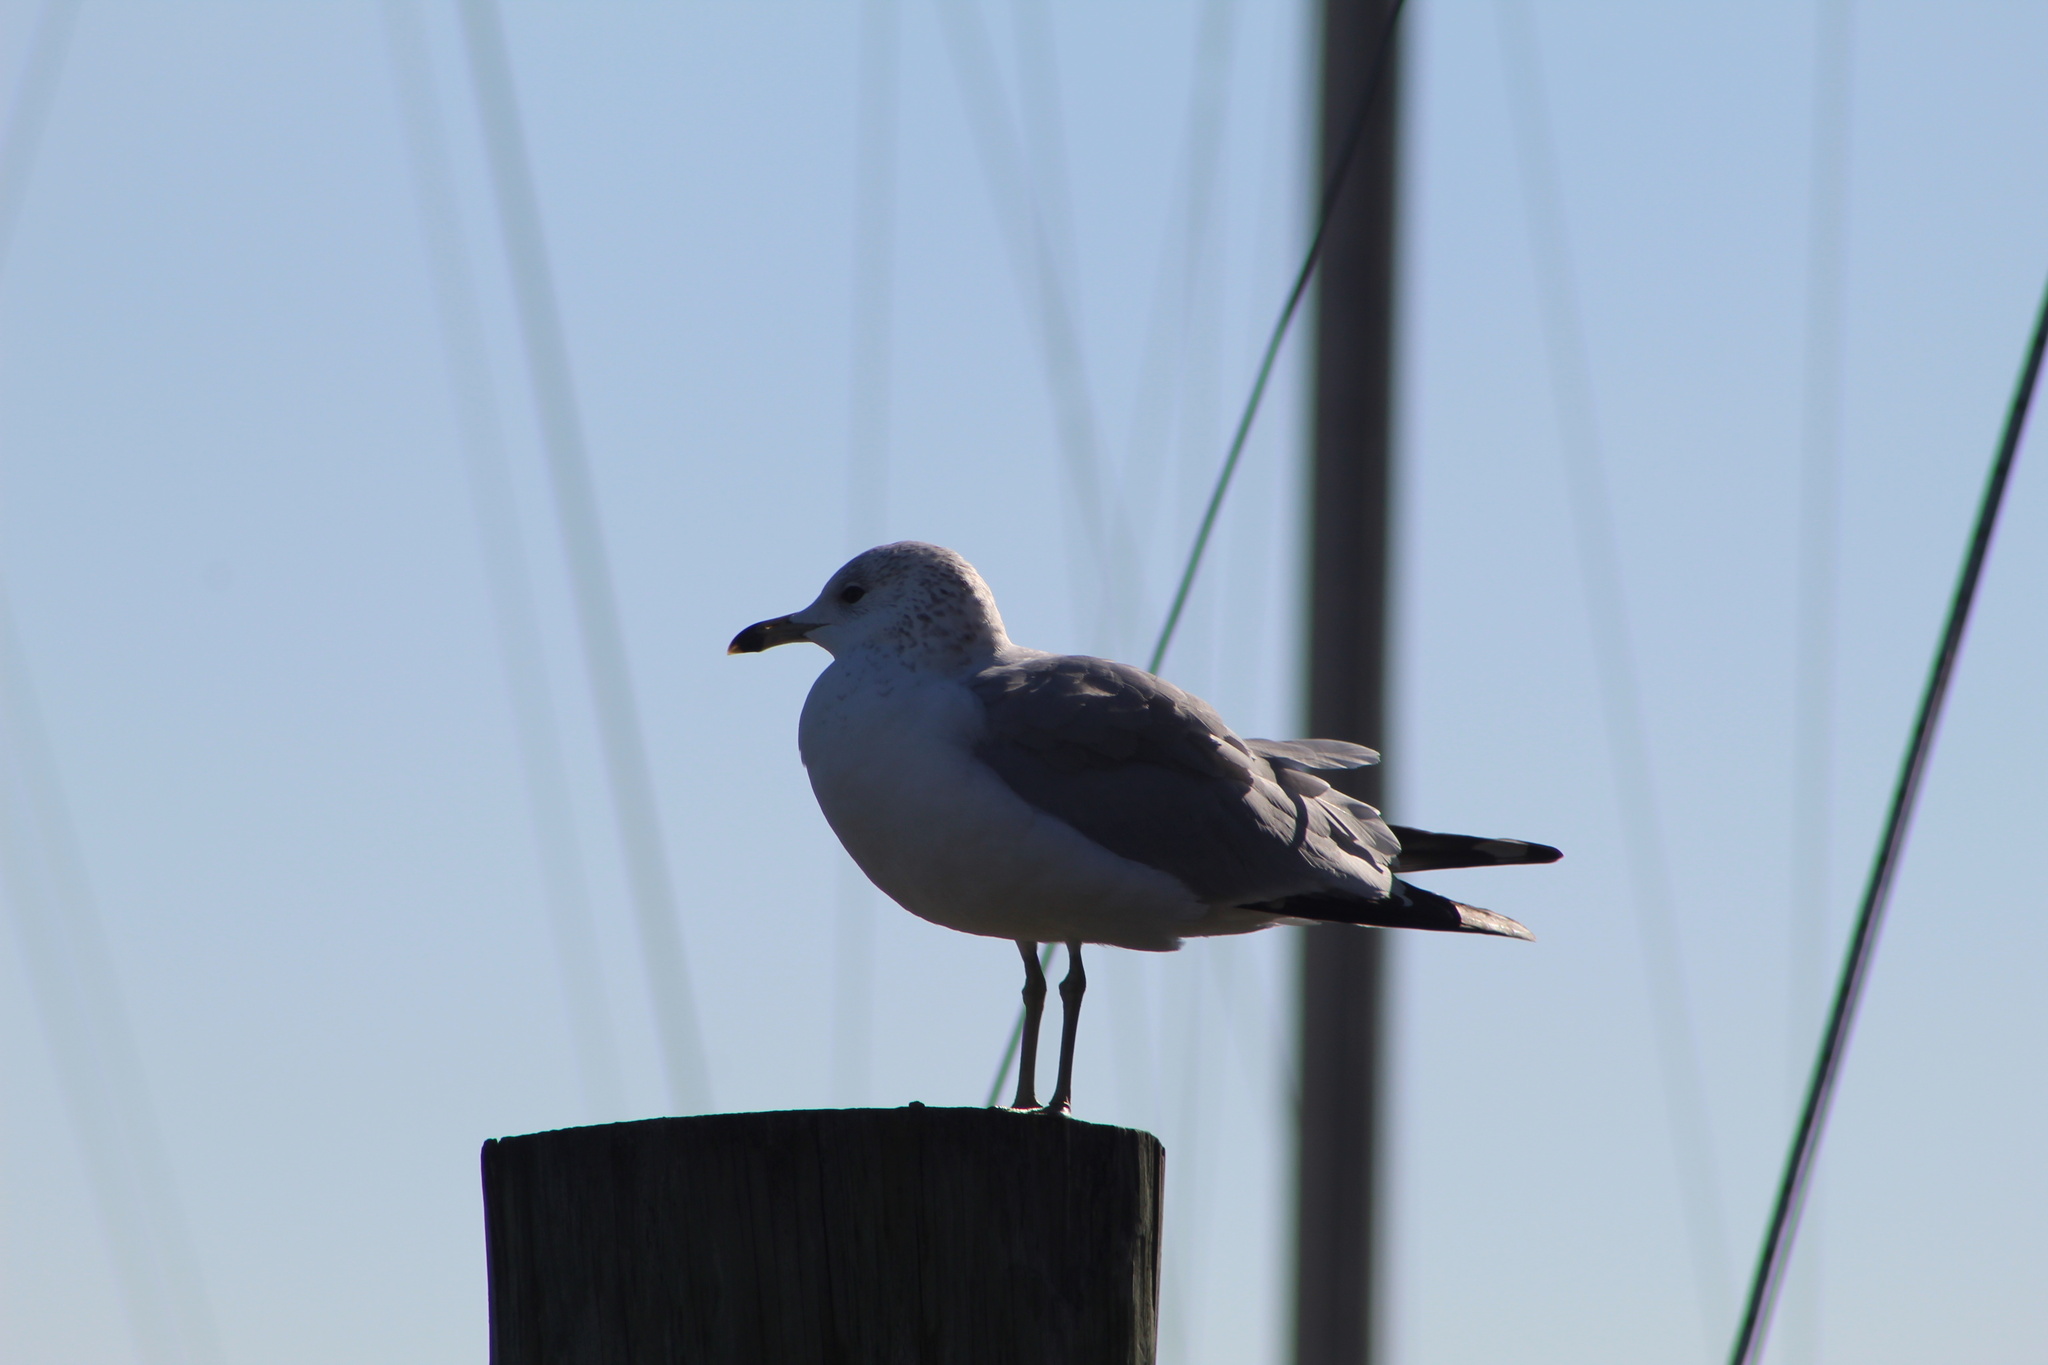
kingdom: Animalia
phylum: Chordata
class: Aves
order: Charadriiformes
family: Laridae
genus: Larus
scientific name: Larus delawarensis
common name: Ring-billed gull
